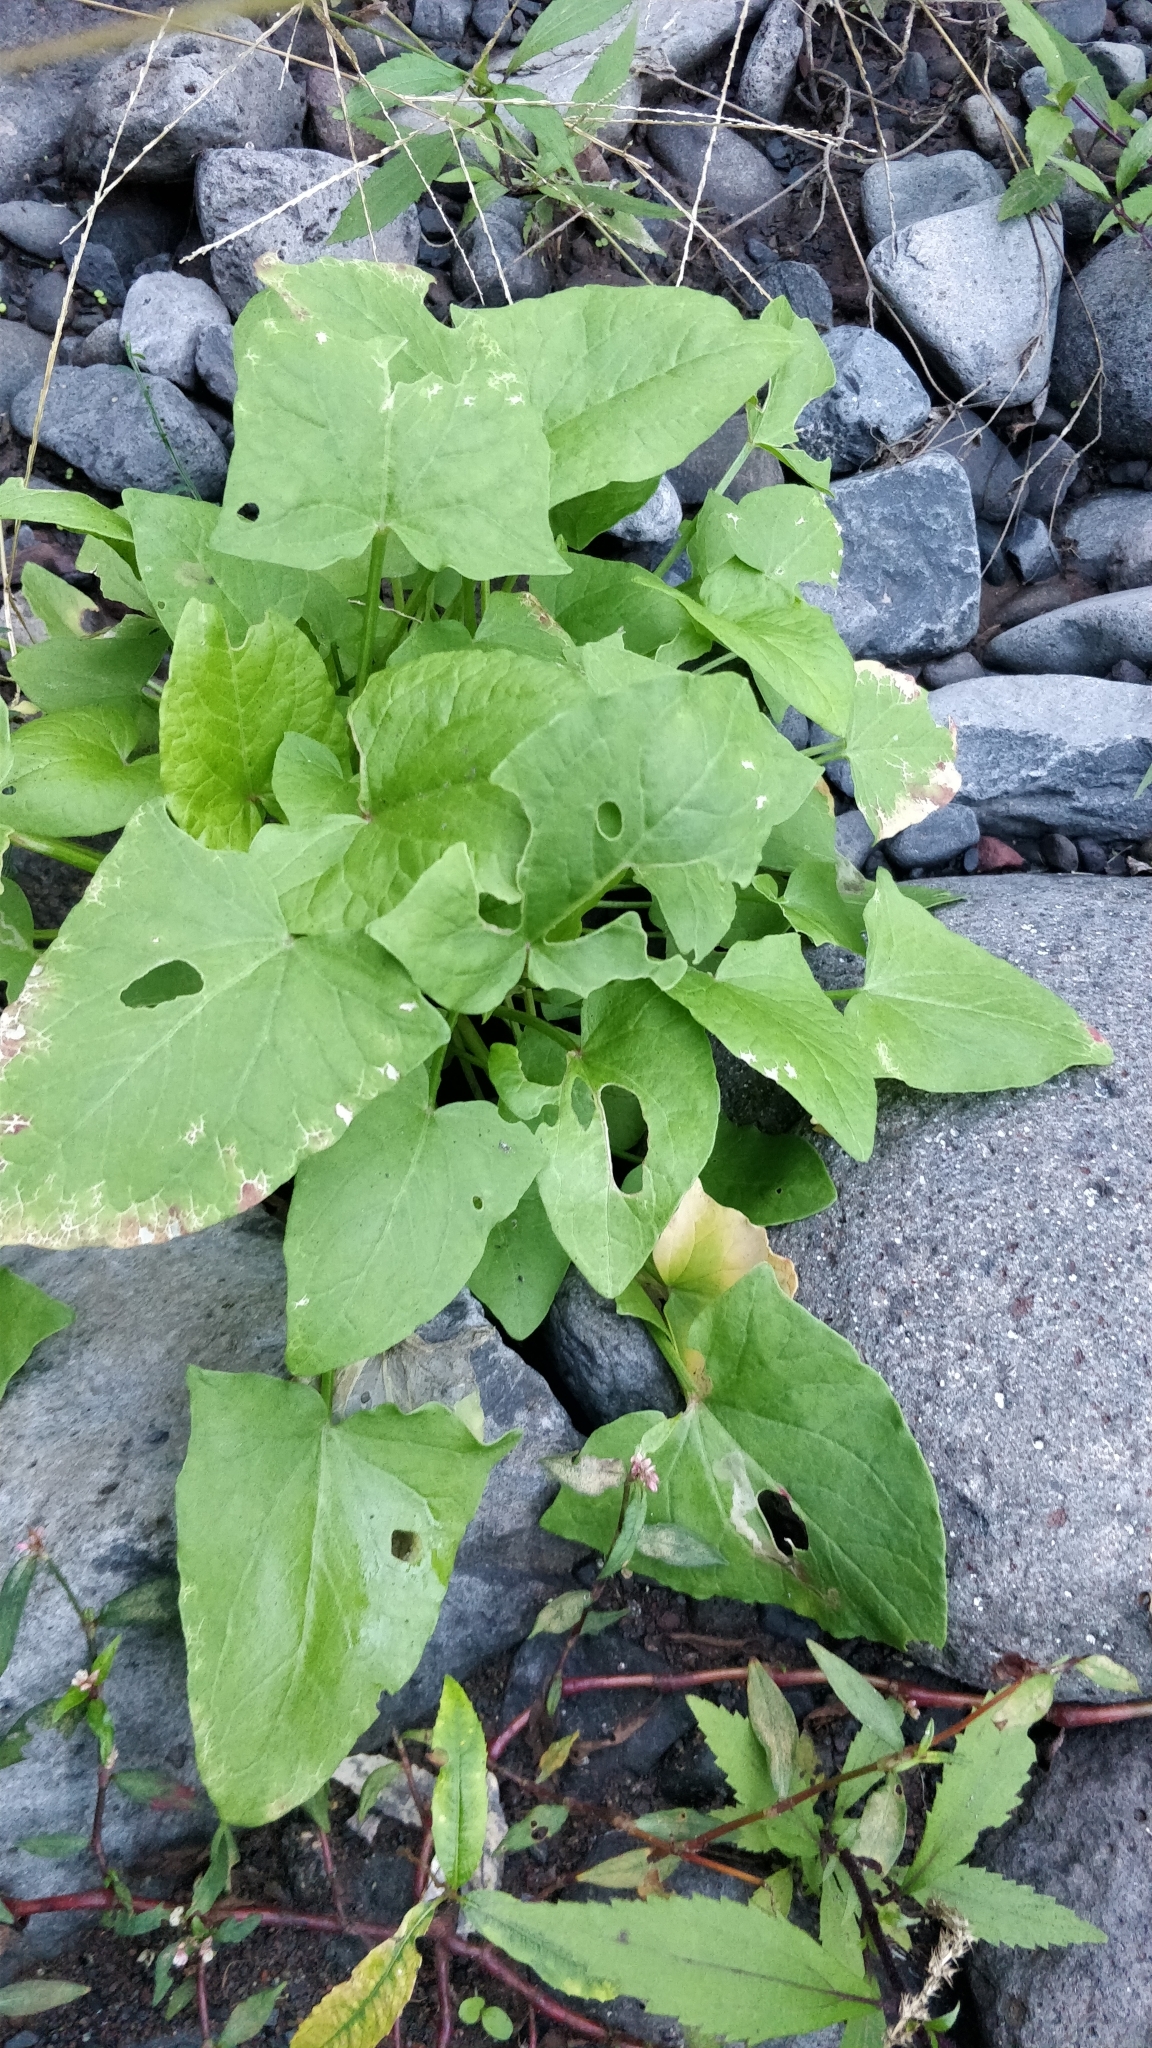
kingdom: Plantae
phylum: Tracheophyta
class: Magnoliopsida
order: Caryophyllales
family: Polygonaceae
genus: Rumex
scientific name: Rumex maderensis
